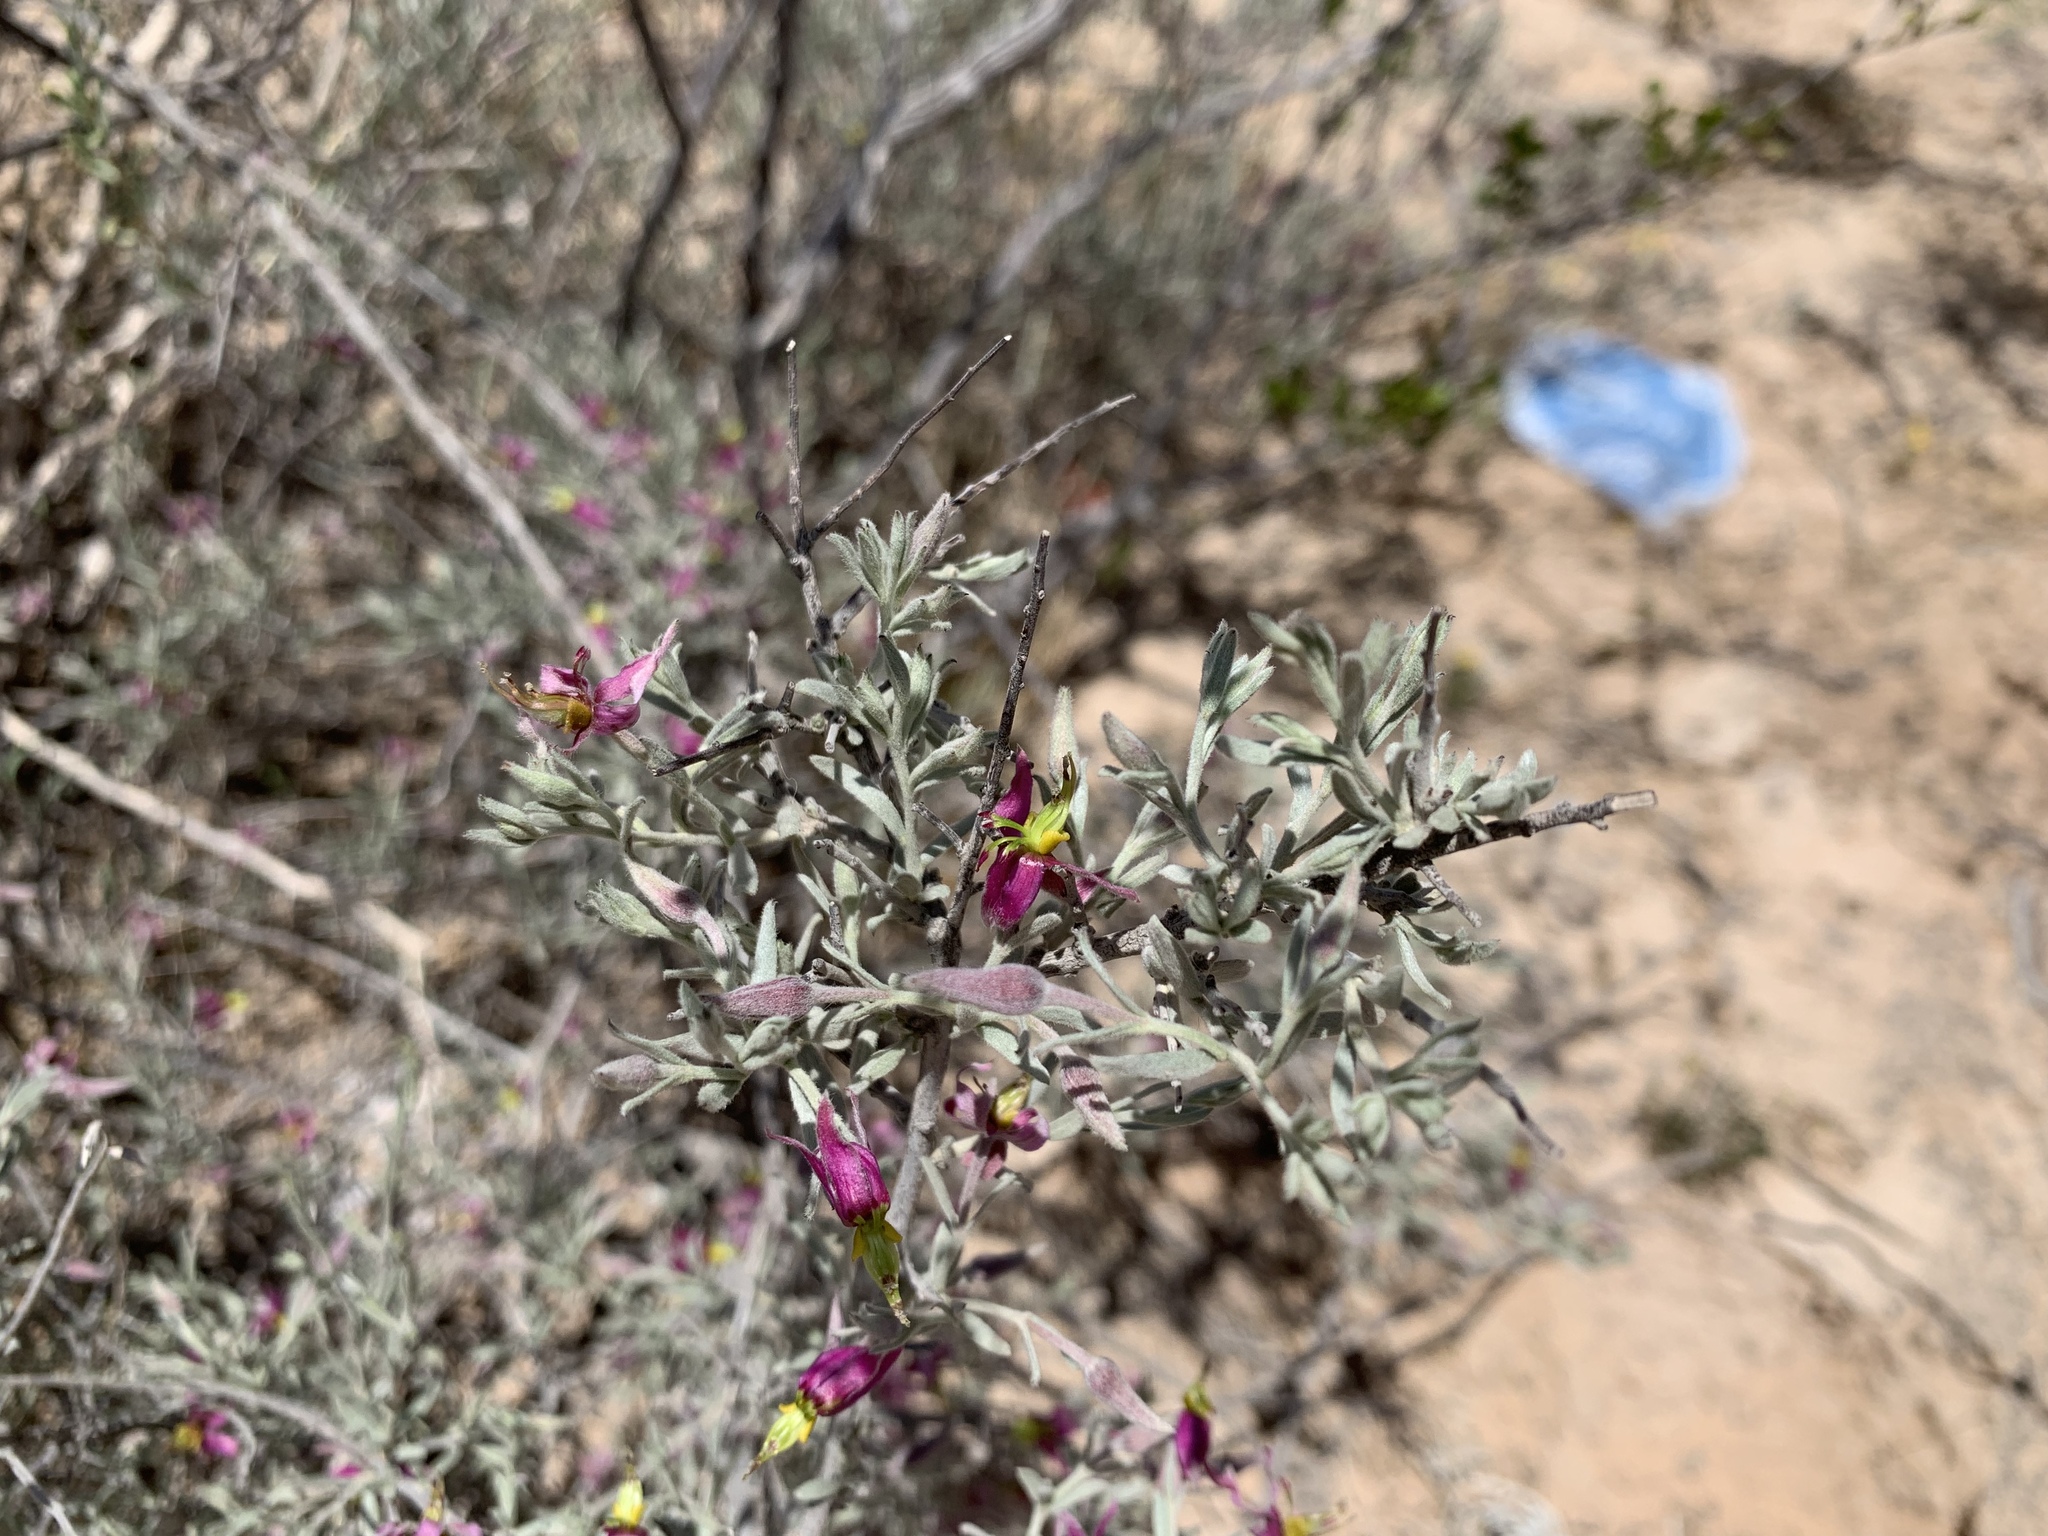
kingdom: Plantae
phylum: Tracheophyta
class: Magnoliopsida
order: Zygophyllales
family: Krameriaceae
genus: Krameria
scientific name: Krameria bicolor
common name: White ratany
